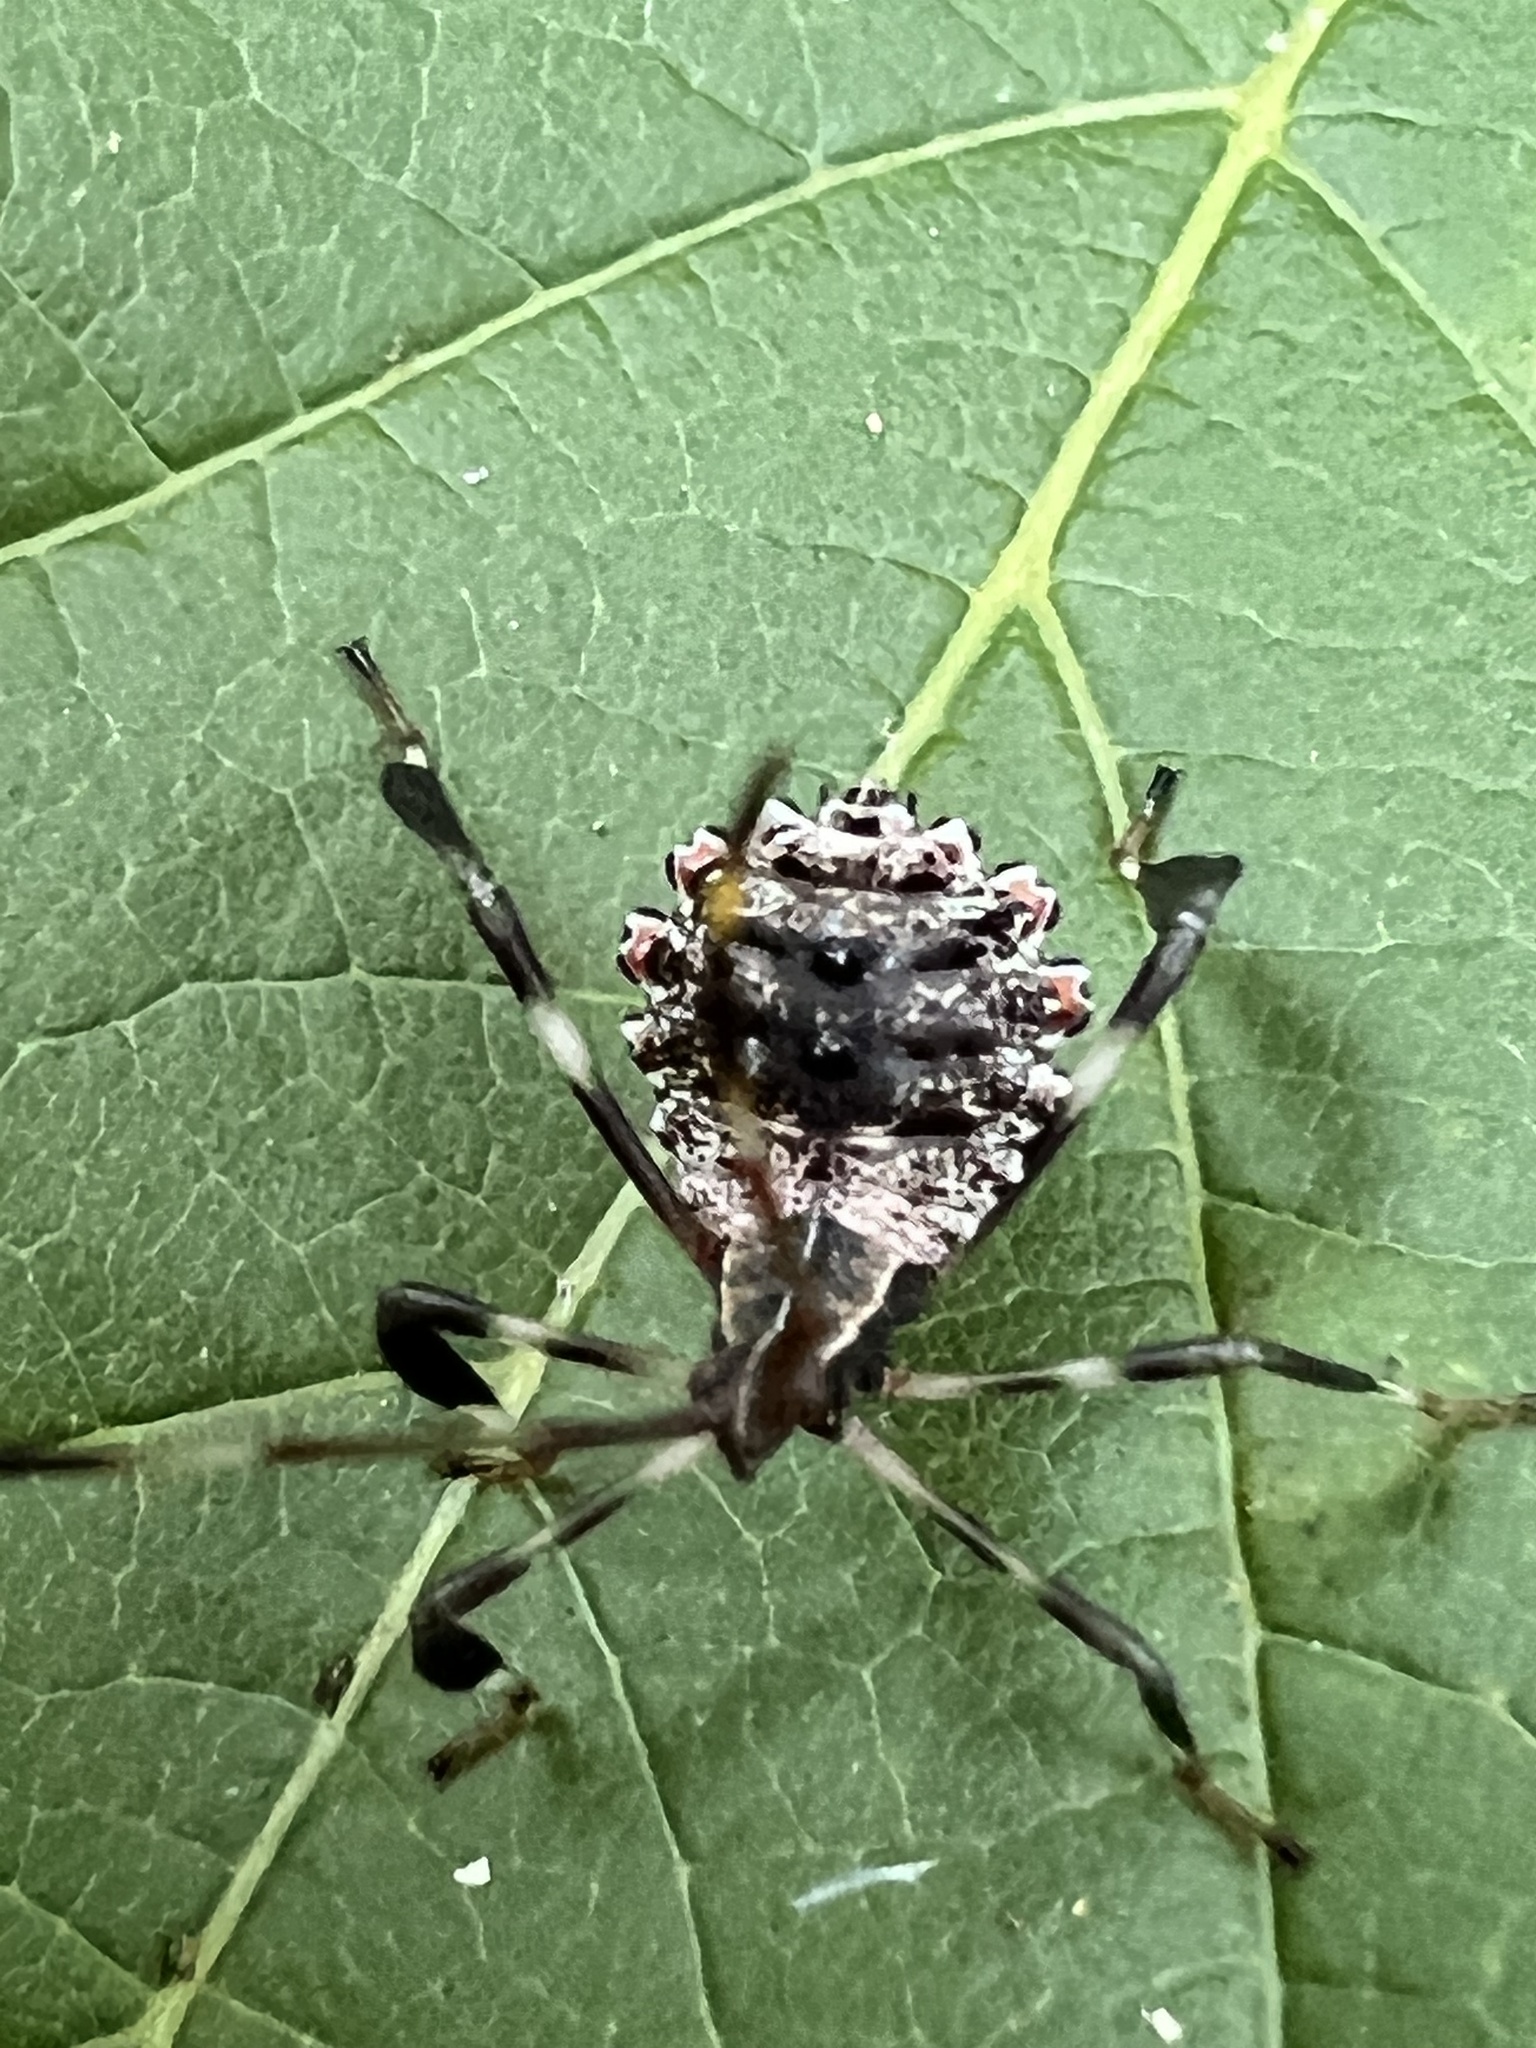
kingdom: Animalia
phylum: Arthropoda
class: Insecta
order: Hemiptera
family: Coreidae
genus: Acanthocephala
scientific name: Acanthocephala terminalis
